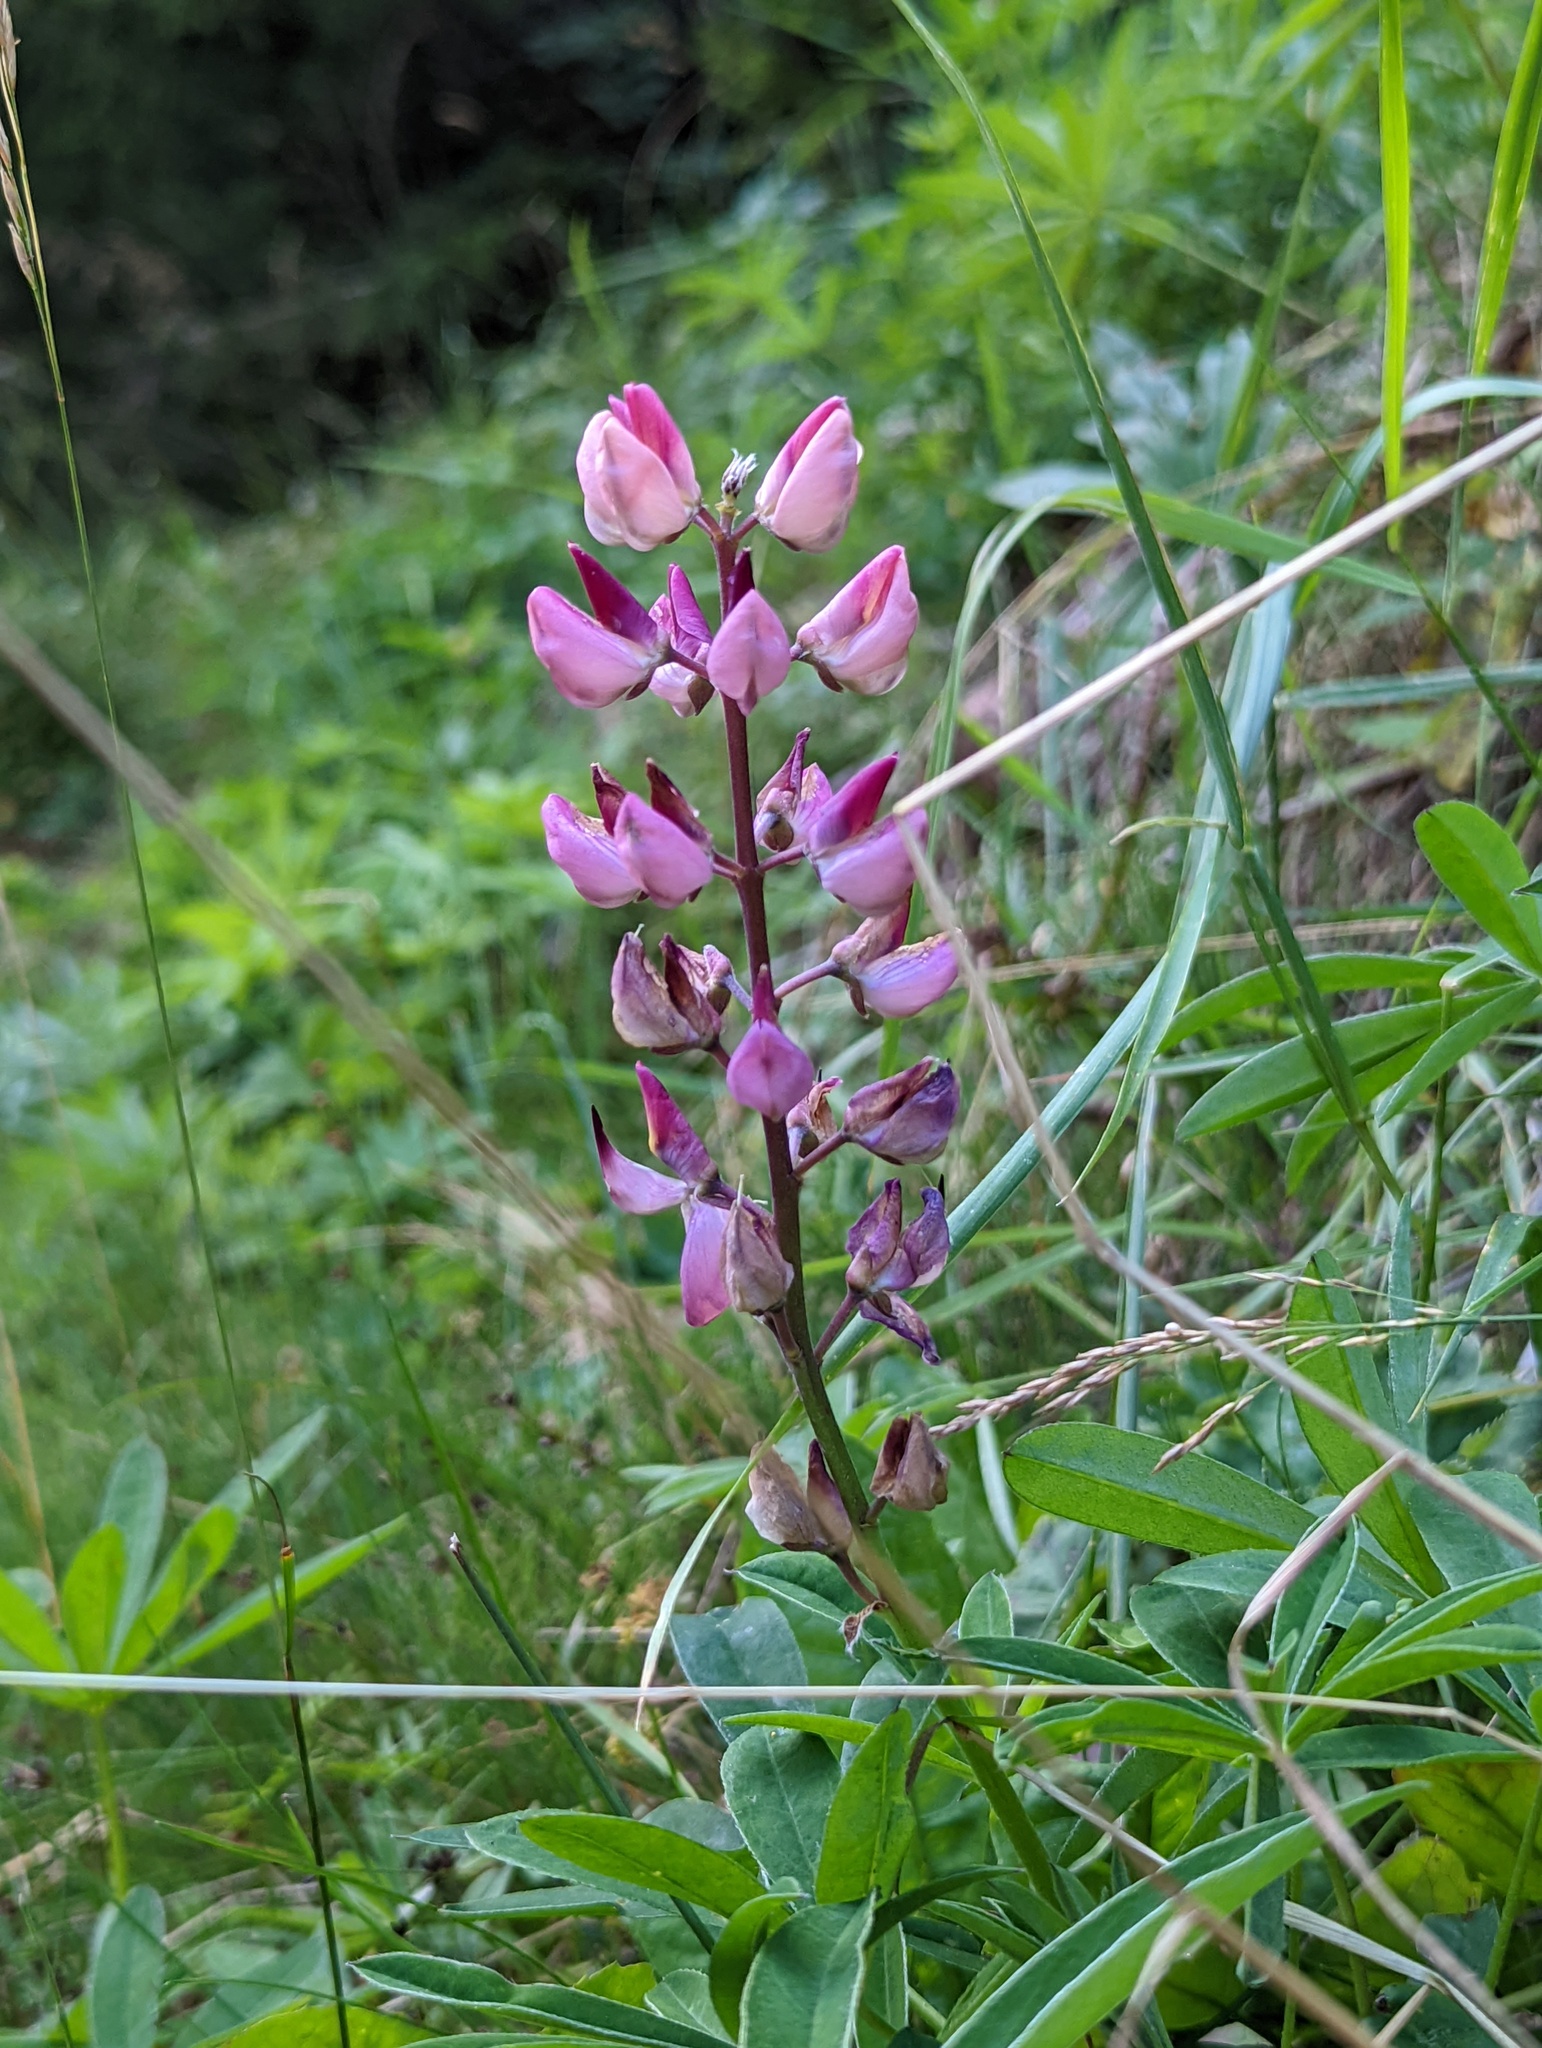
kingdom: Plantae
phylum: Tracheophyta
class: Magnoliopsida
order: Fabales
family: Fabaceae
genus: Lupinus
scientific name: Lupinus polyphyllus
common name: Garden lupin
